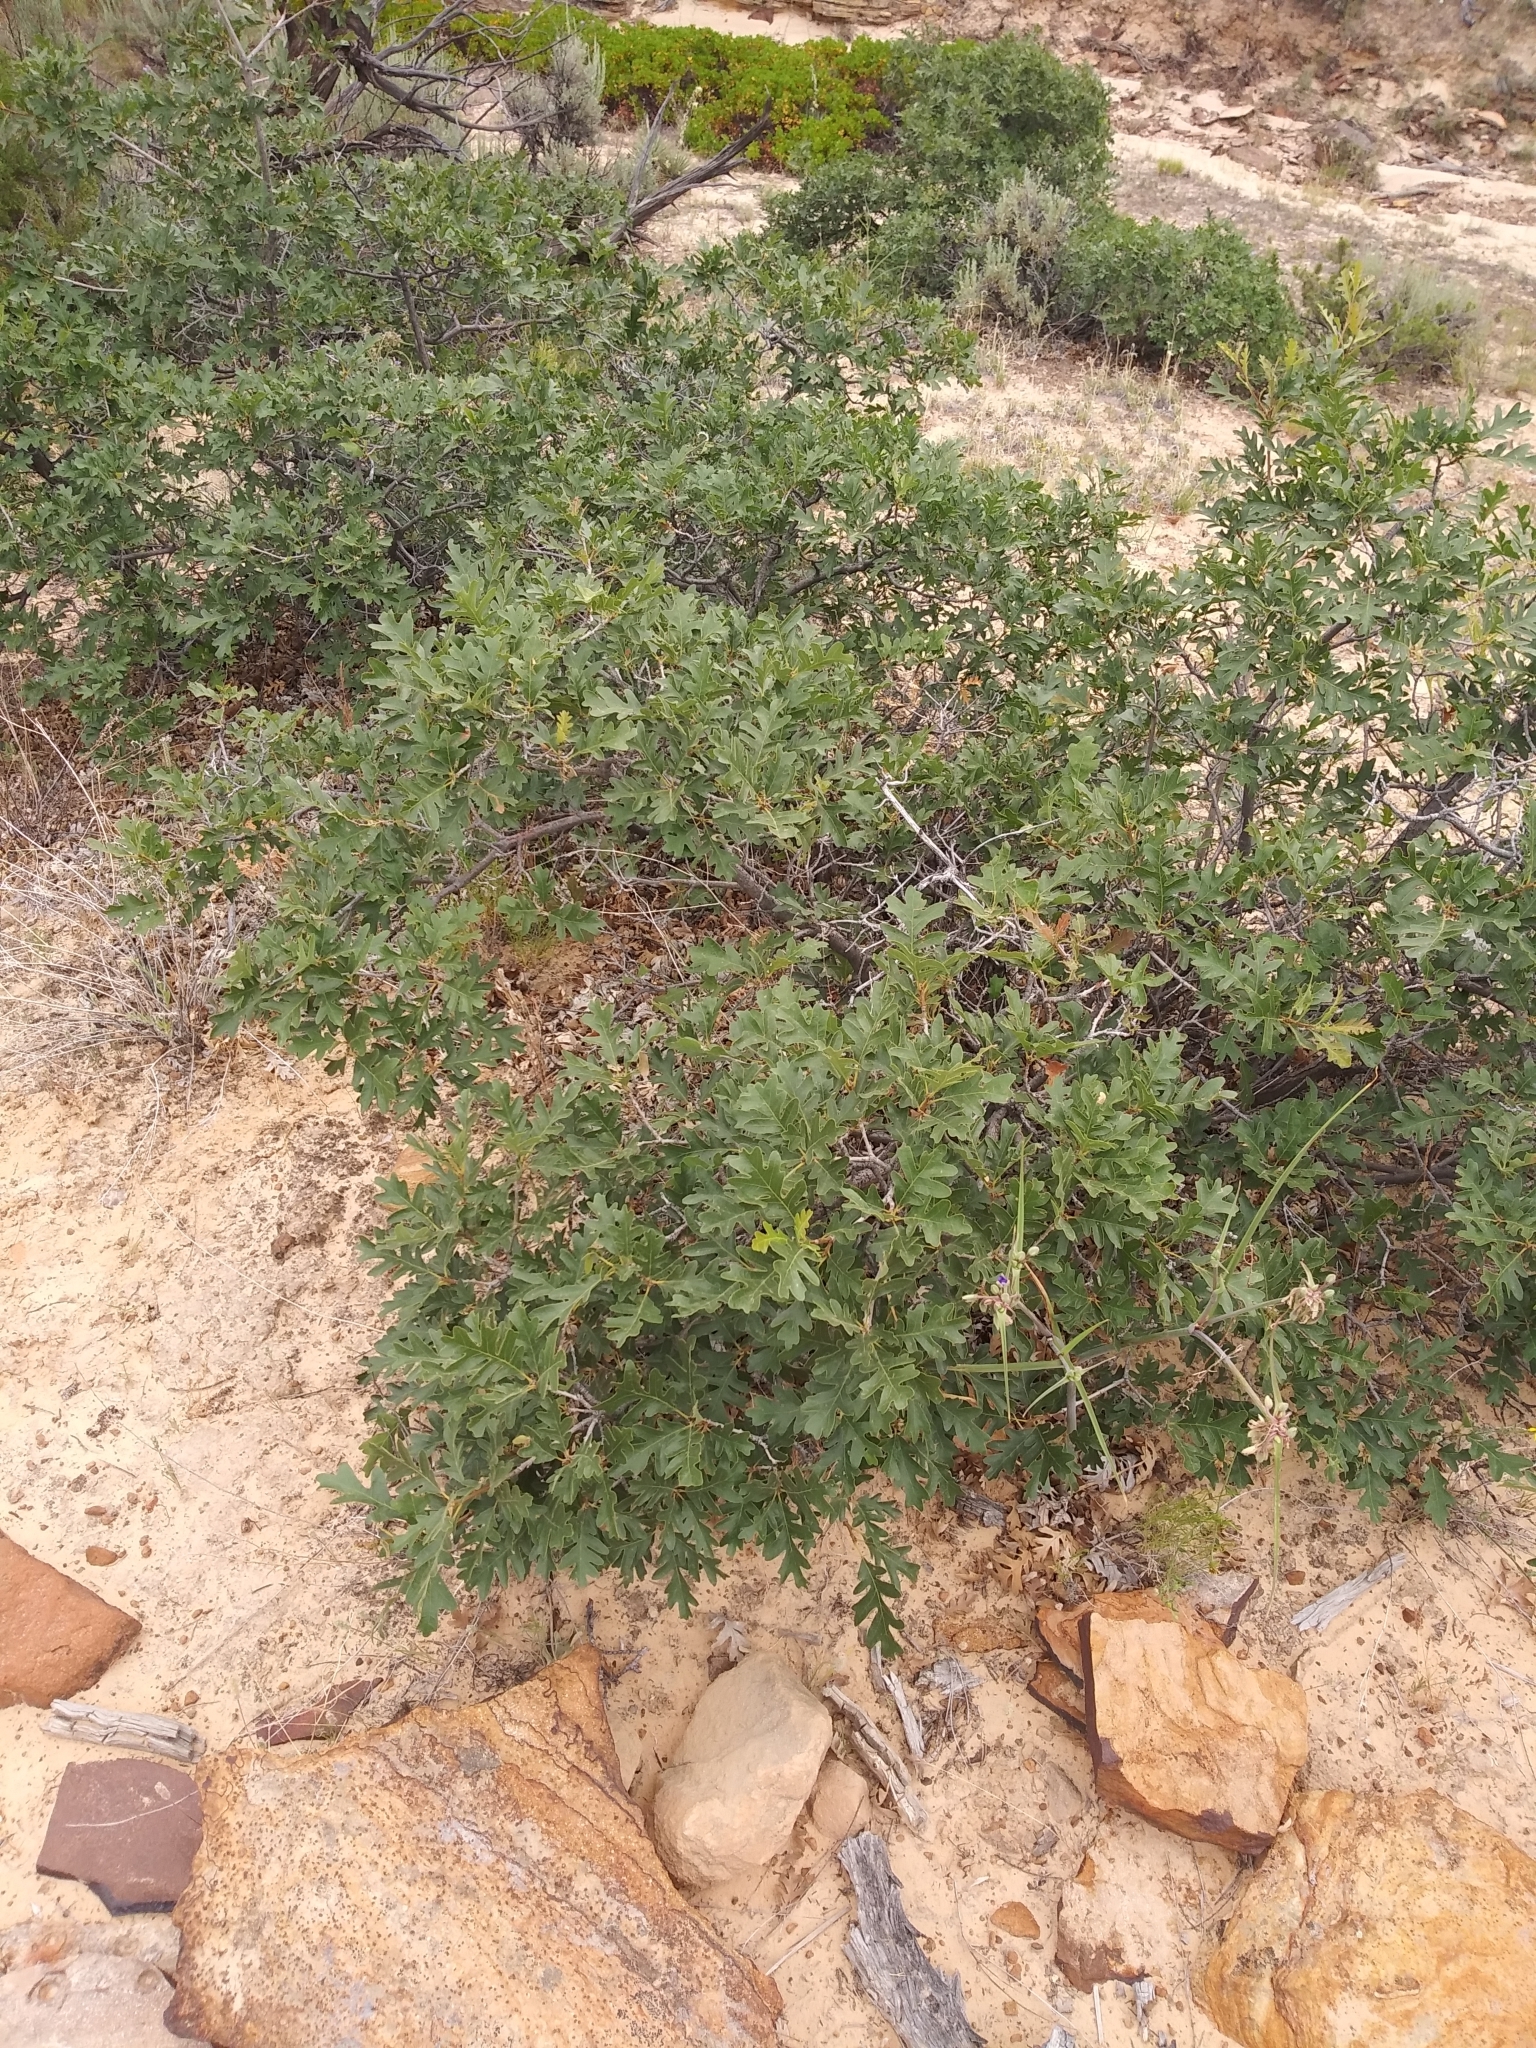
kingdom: Plantae
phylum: Tracheophyta
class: Magnoliopsida
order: Fagales
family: Fagaceae
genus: Quercus
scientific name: Quercus gambelii
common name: Gambel oak
